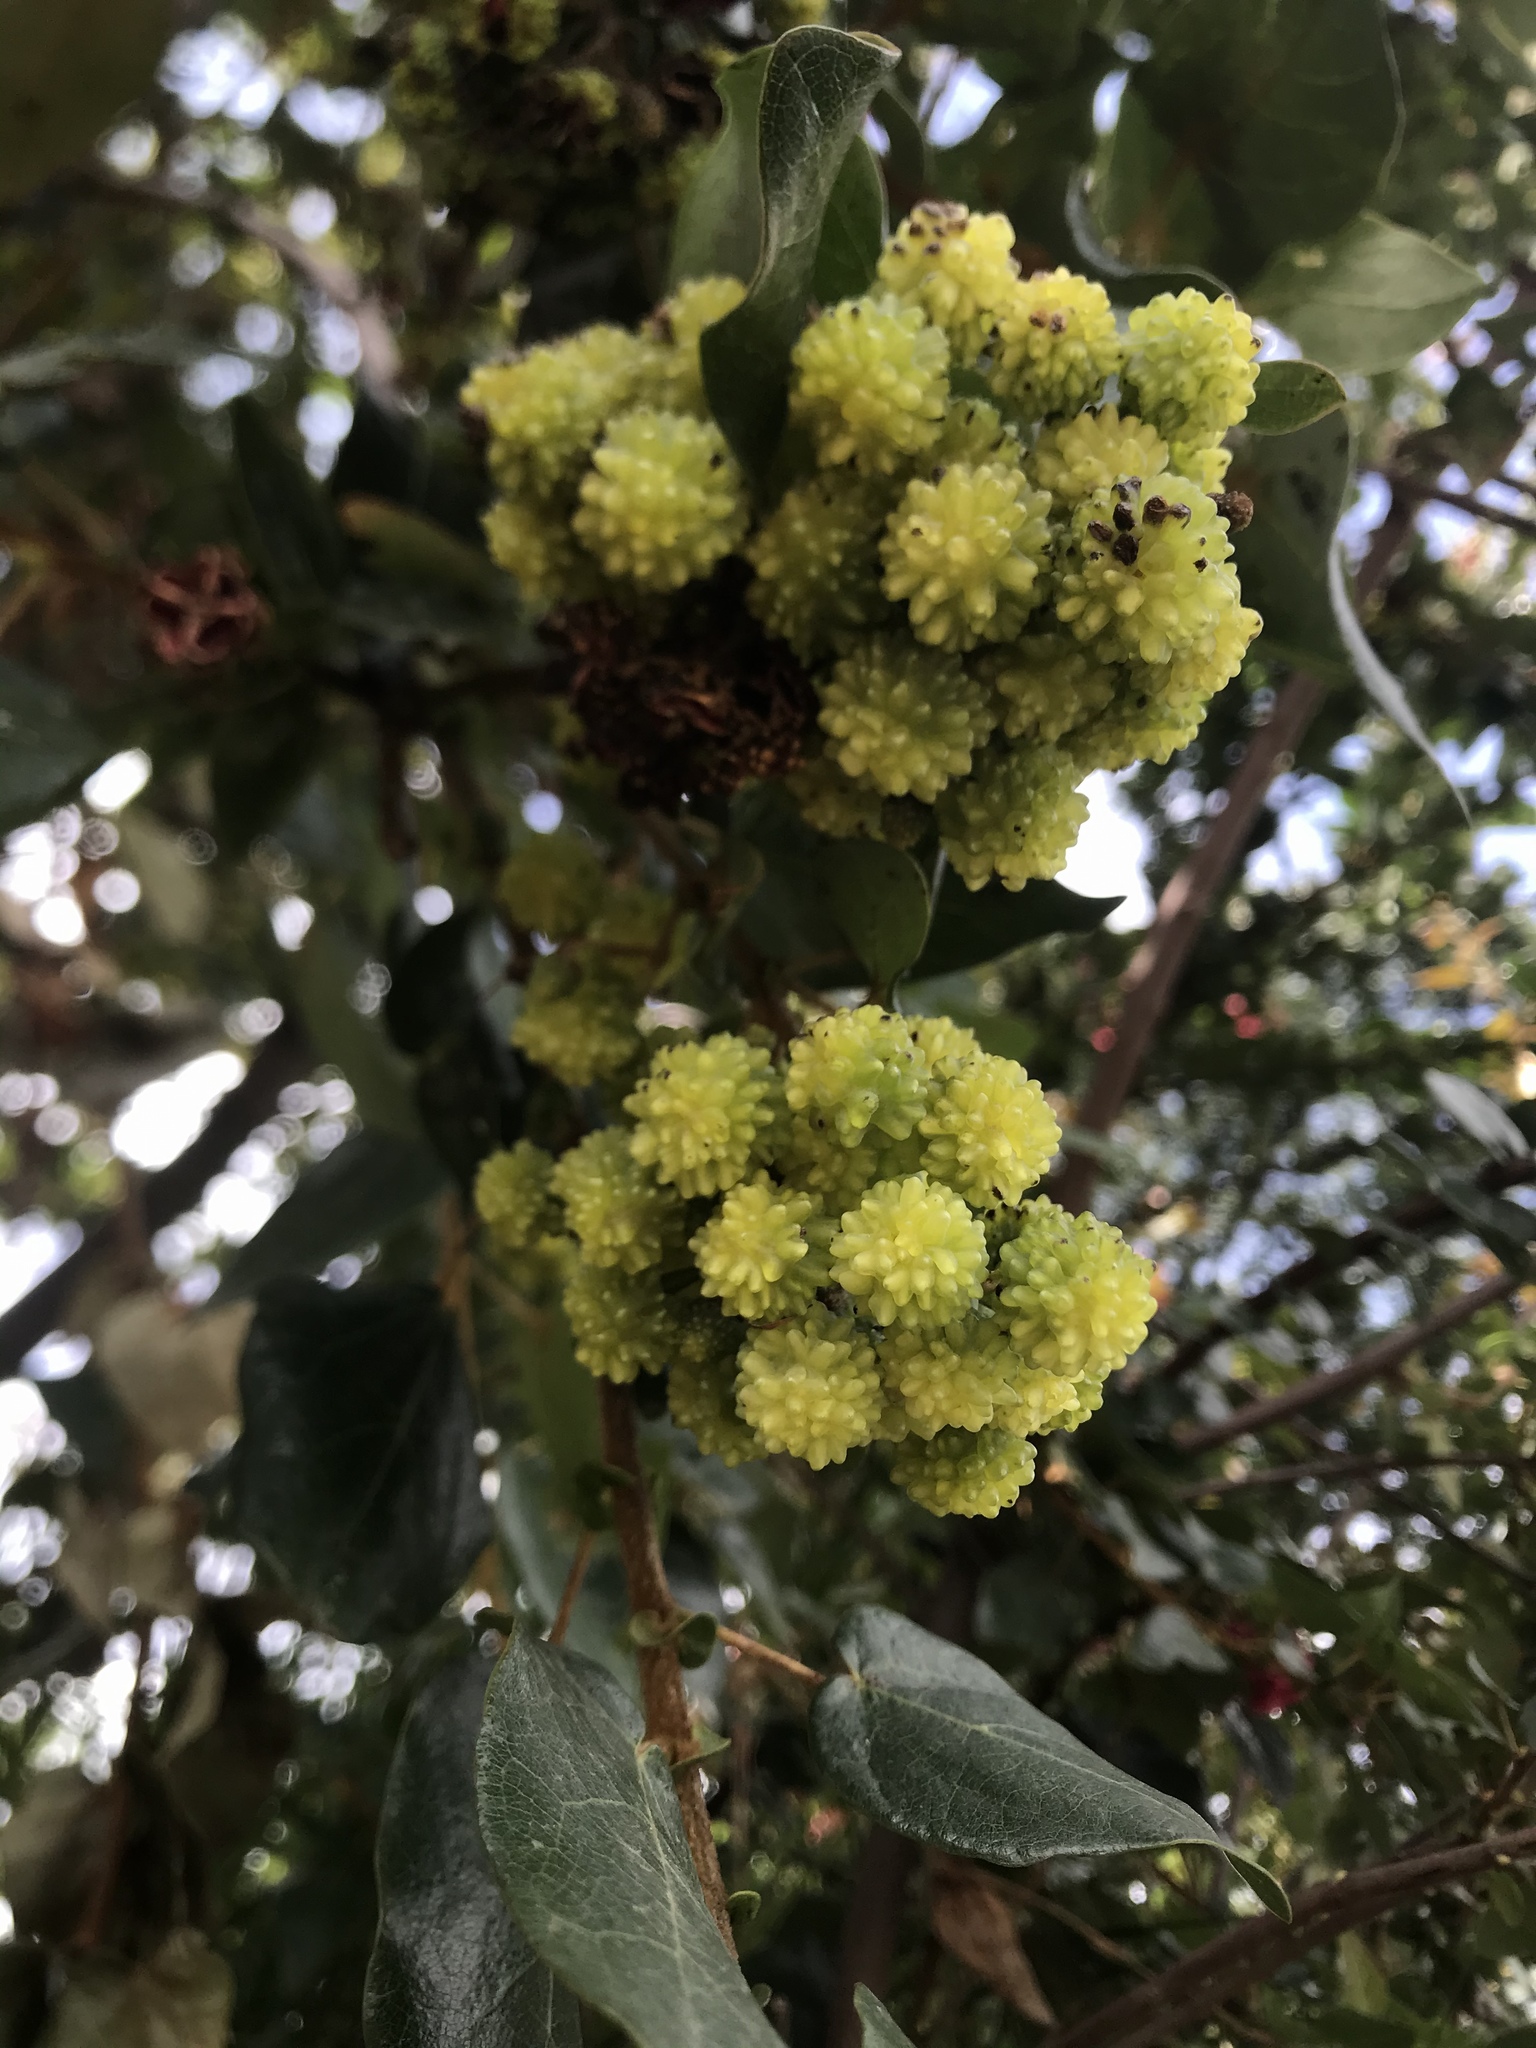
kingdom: Plantae
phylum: Tracheophyta
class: Magnoliopsida
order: Oxalidales
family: Elaeocarpaceae
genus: Vallea
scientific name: Vallea stipularis
